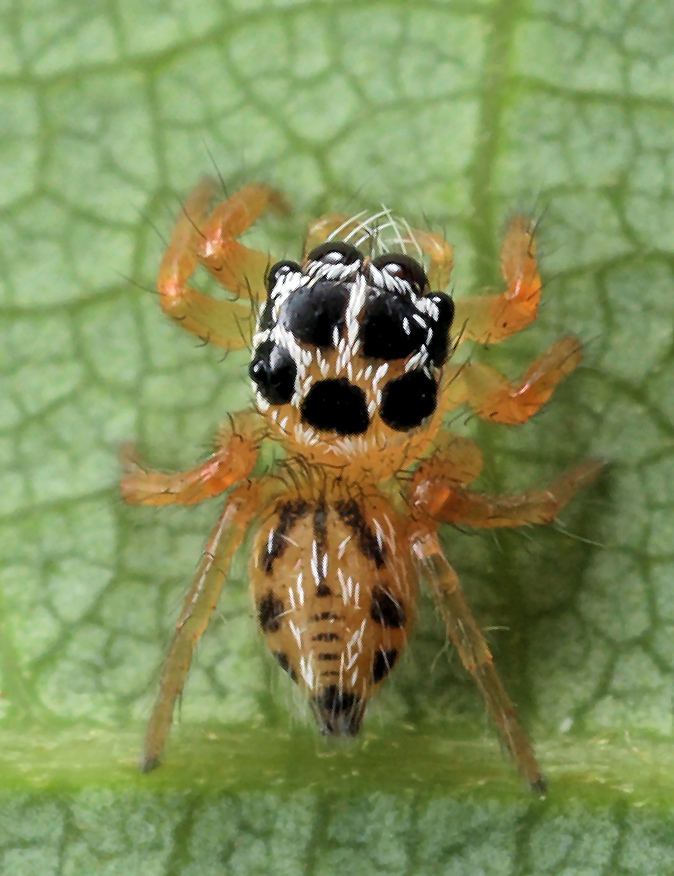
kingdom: Animalia
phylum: Arthropoda
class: Arachnida
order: Araneae
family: Salticidae
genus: Thyene
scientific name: Thyene inflata
